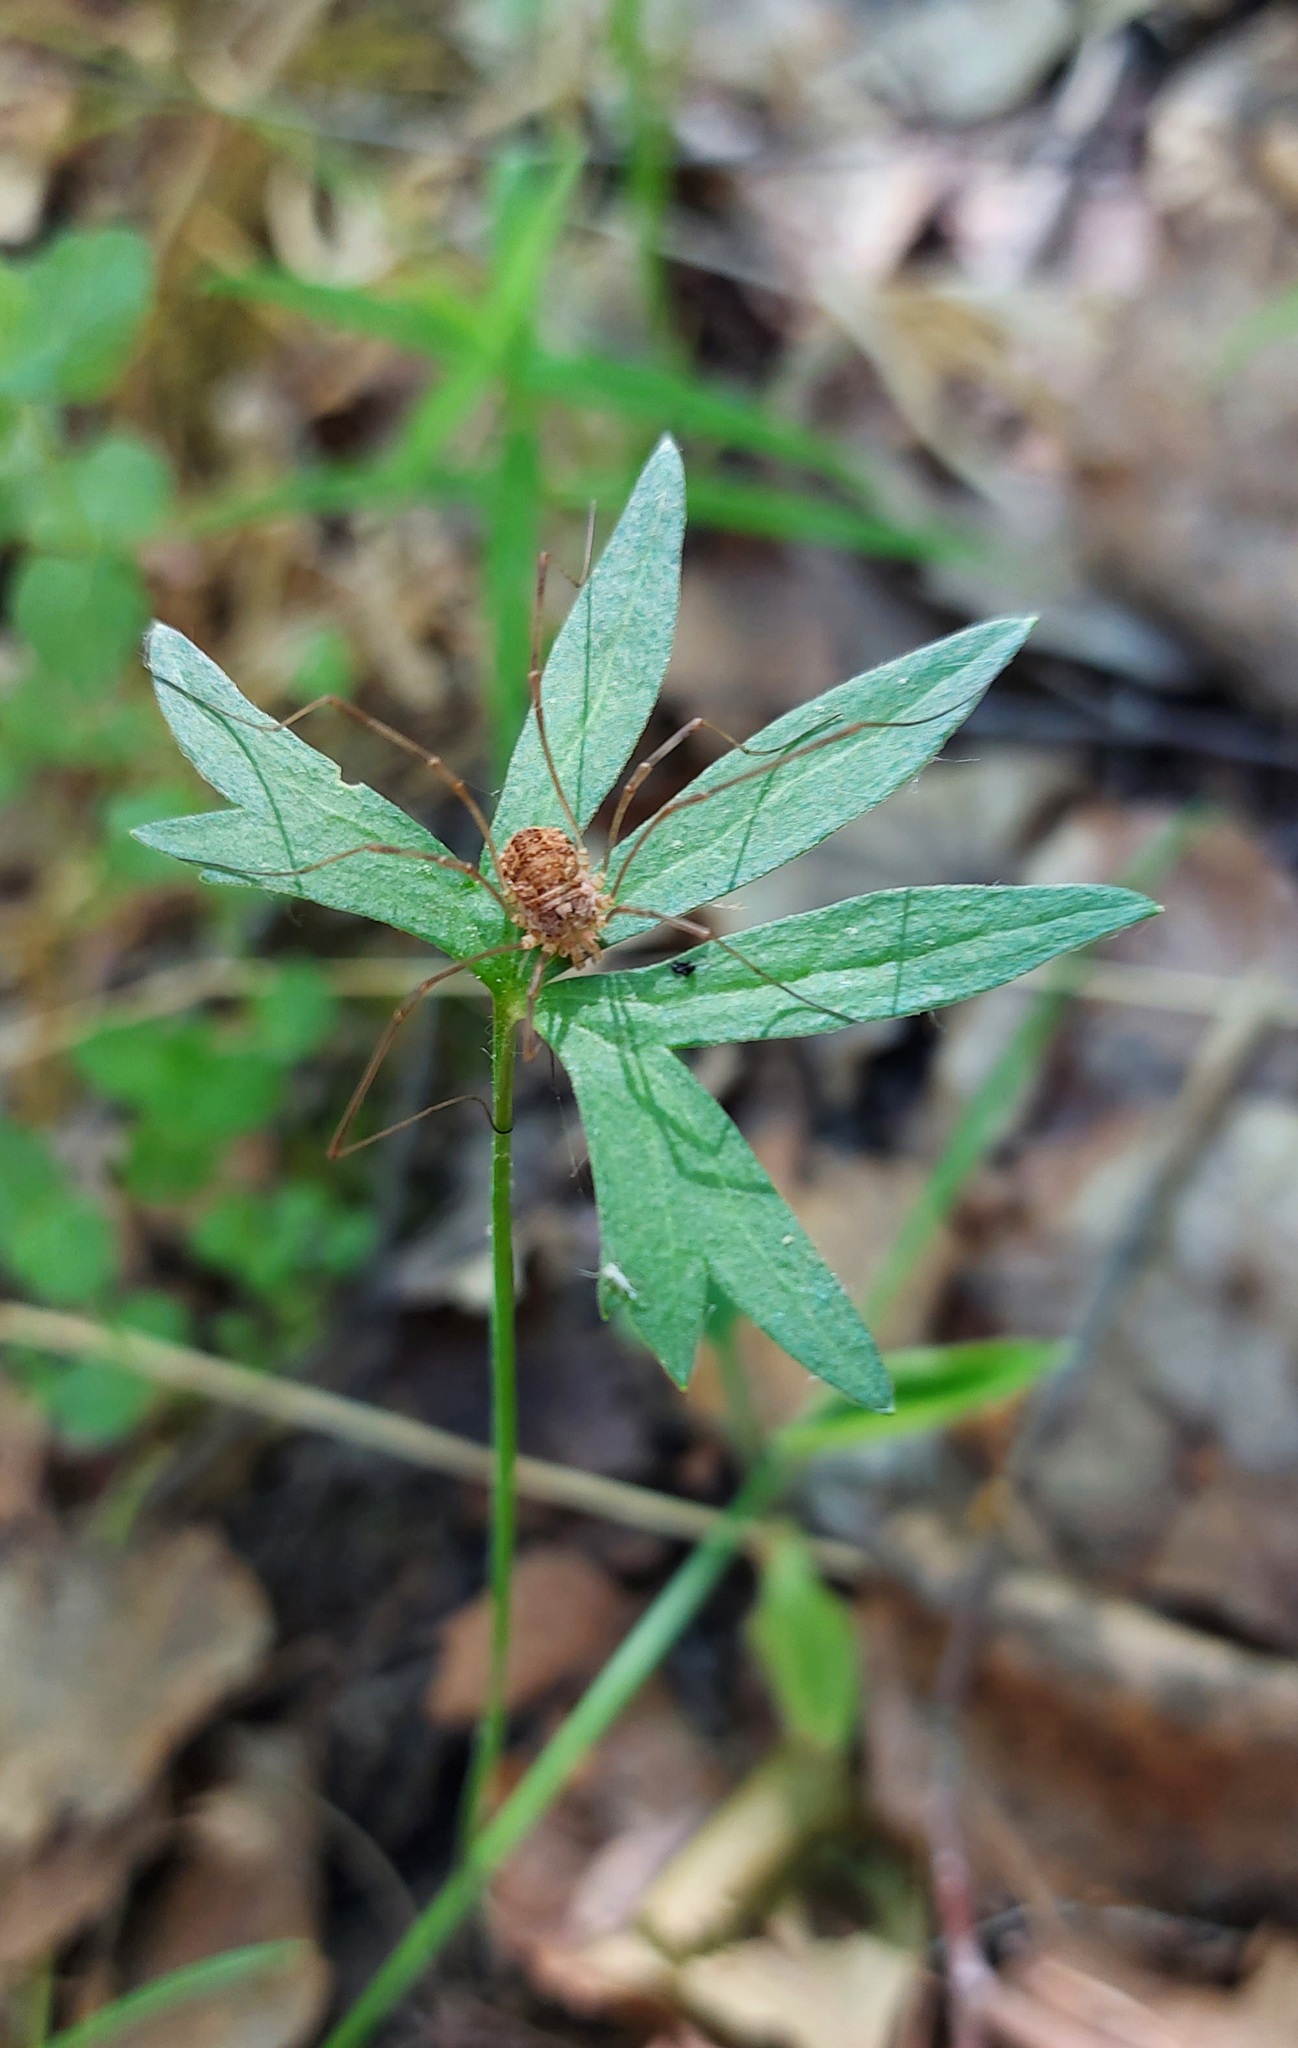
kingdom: Animalia
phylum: Arthropoda
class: Arachnida
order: Opiliones
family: Phalangiidae
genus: Rilaena
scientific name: Rilaena triangularis
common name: Spring harvestman
